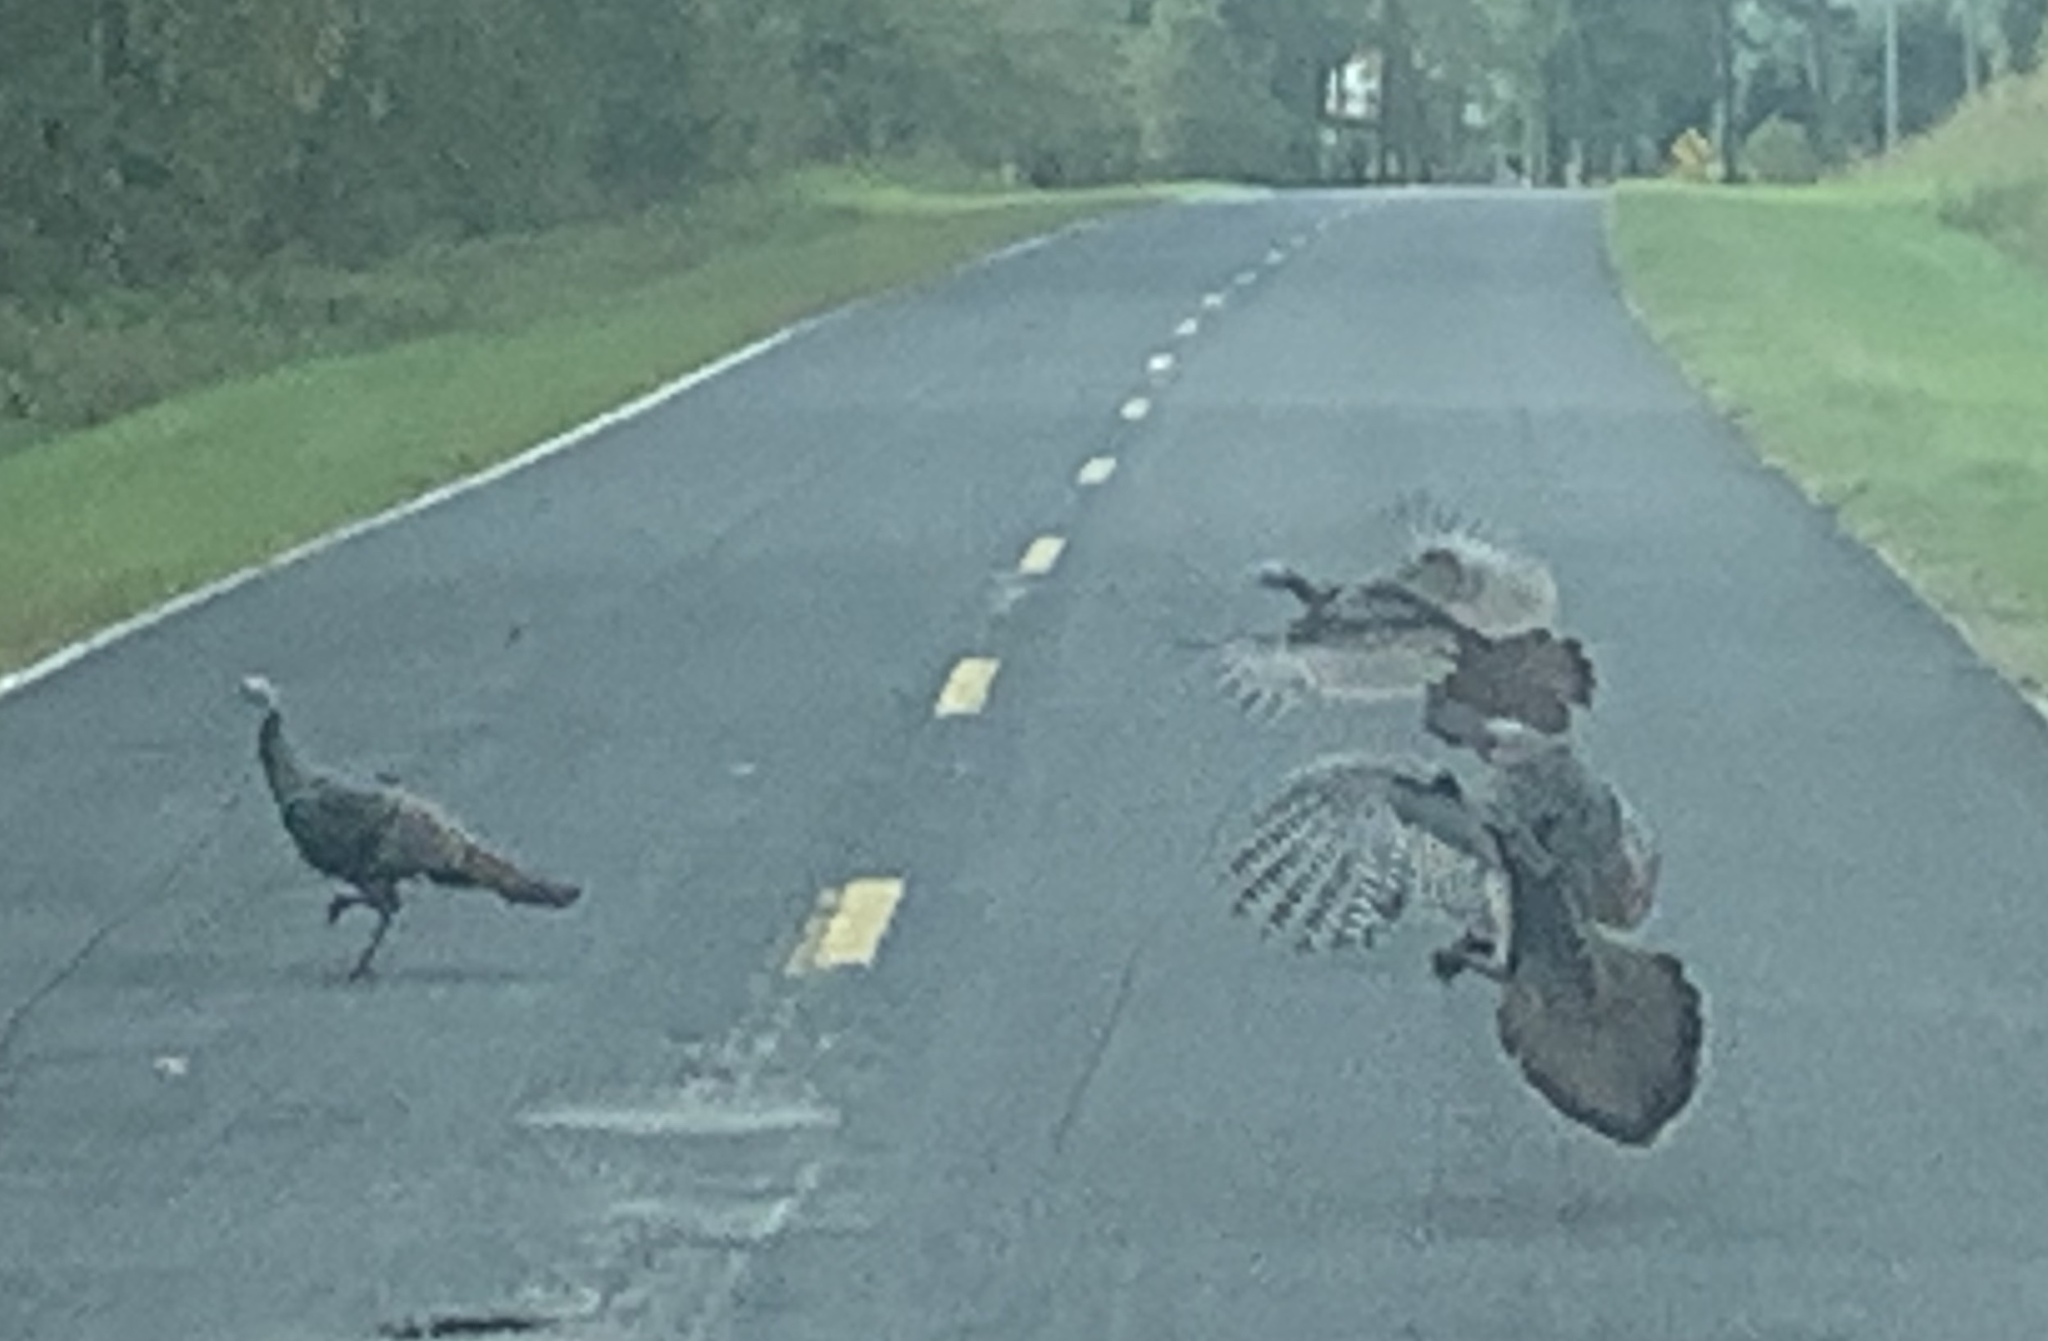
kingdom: Animalia
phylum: Chordata
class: Aves
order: Galliformes
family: Phasianidae
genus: Meleagris
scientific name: Meleagris gallopavo
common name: Wild turkey
